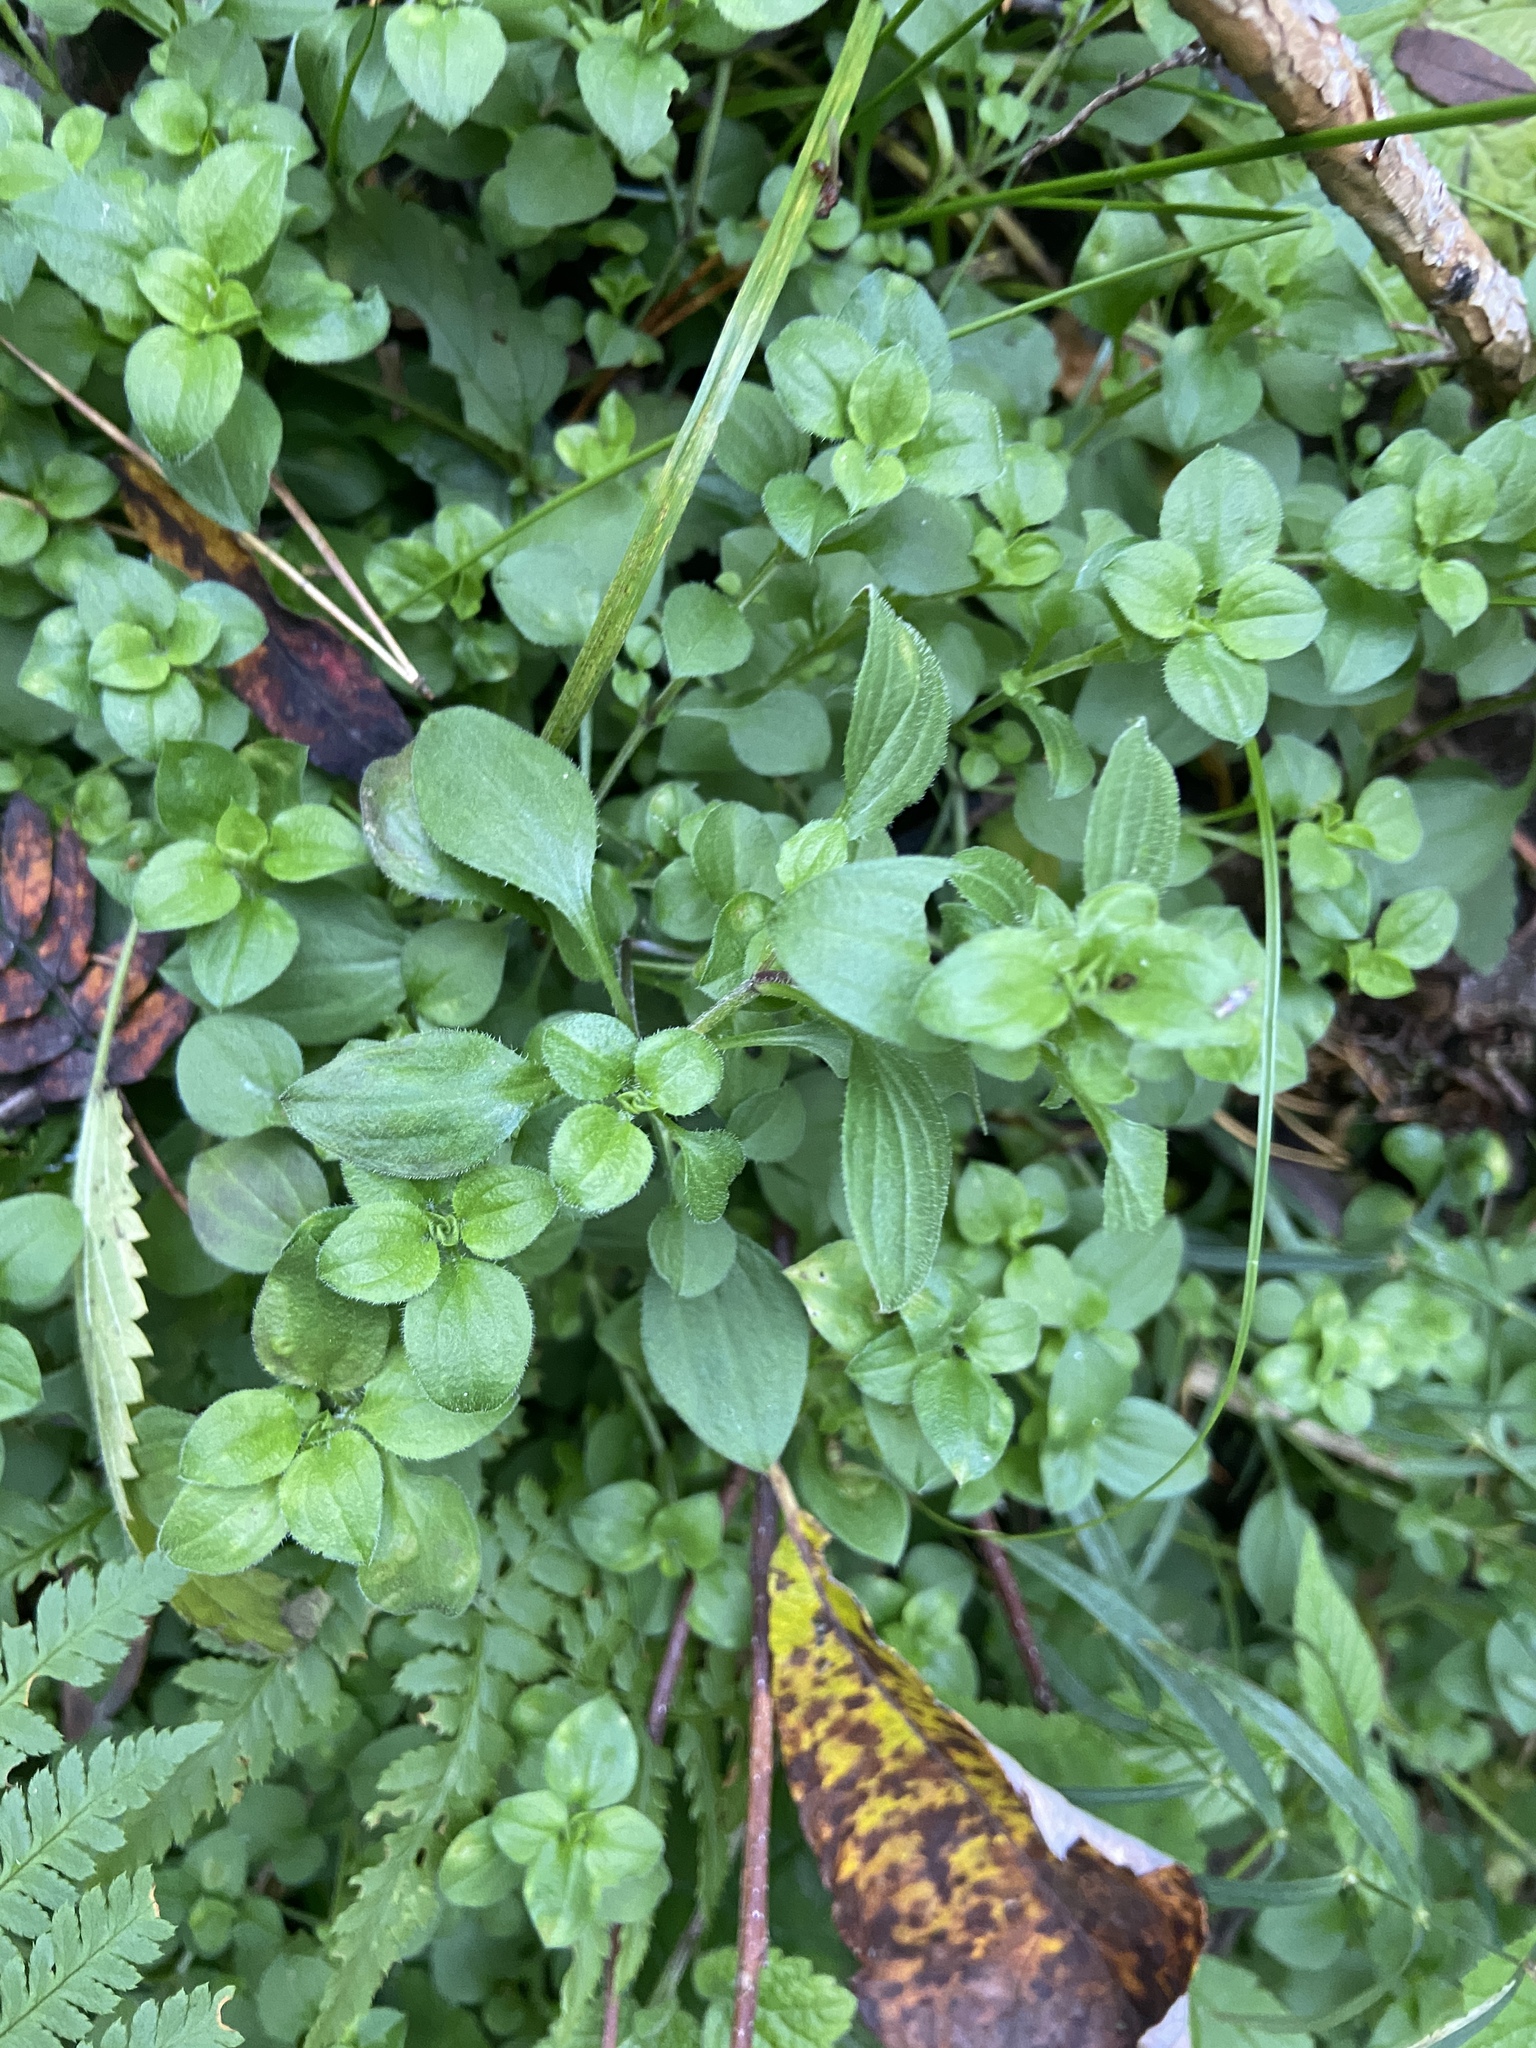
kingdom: Plantae
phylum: Tracheophyta
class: Magnoliopsida
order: Caryophyllales
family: Caryophyllaceae
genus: Moehringia
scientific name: Moehringia trinervia
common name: Three-nerved sandwort
